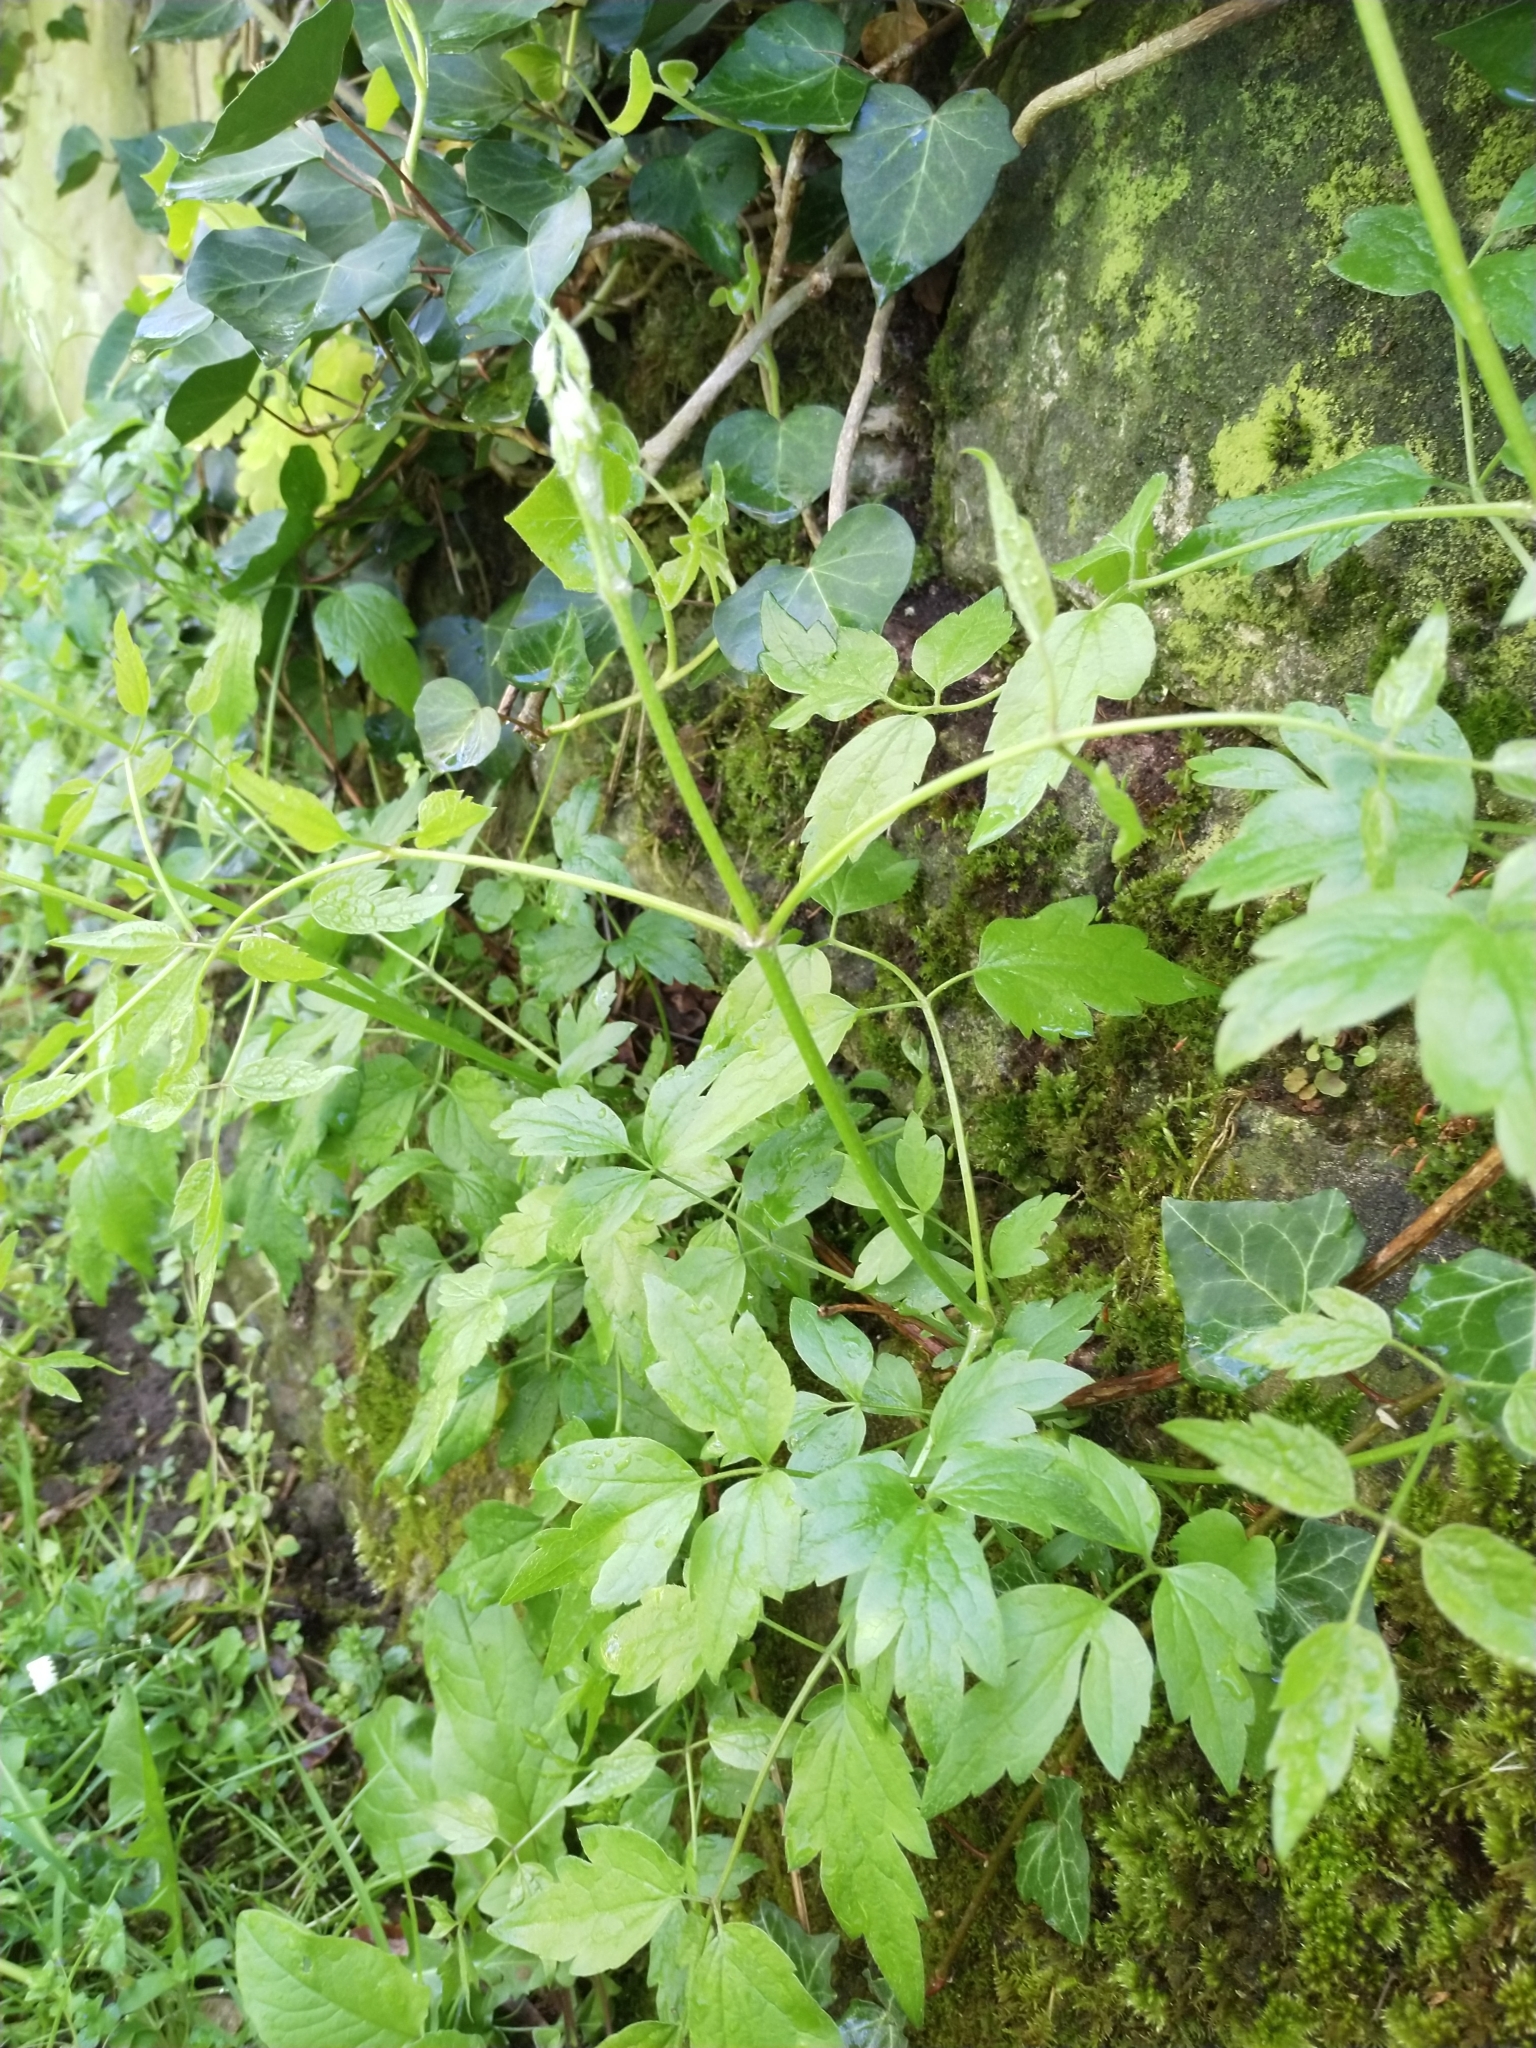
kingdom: Plantae
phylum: Tracheophyta
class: Magnoliopsida
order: Ranunculales
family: Ranunculaceae
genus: Clematis
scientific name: Clematis vitalba
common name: Evergreen clematis
